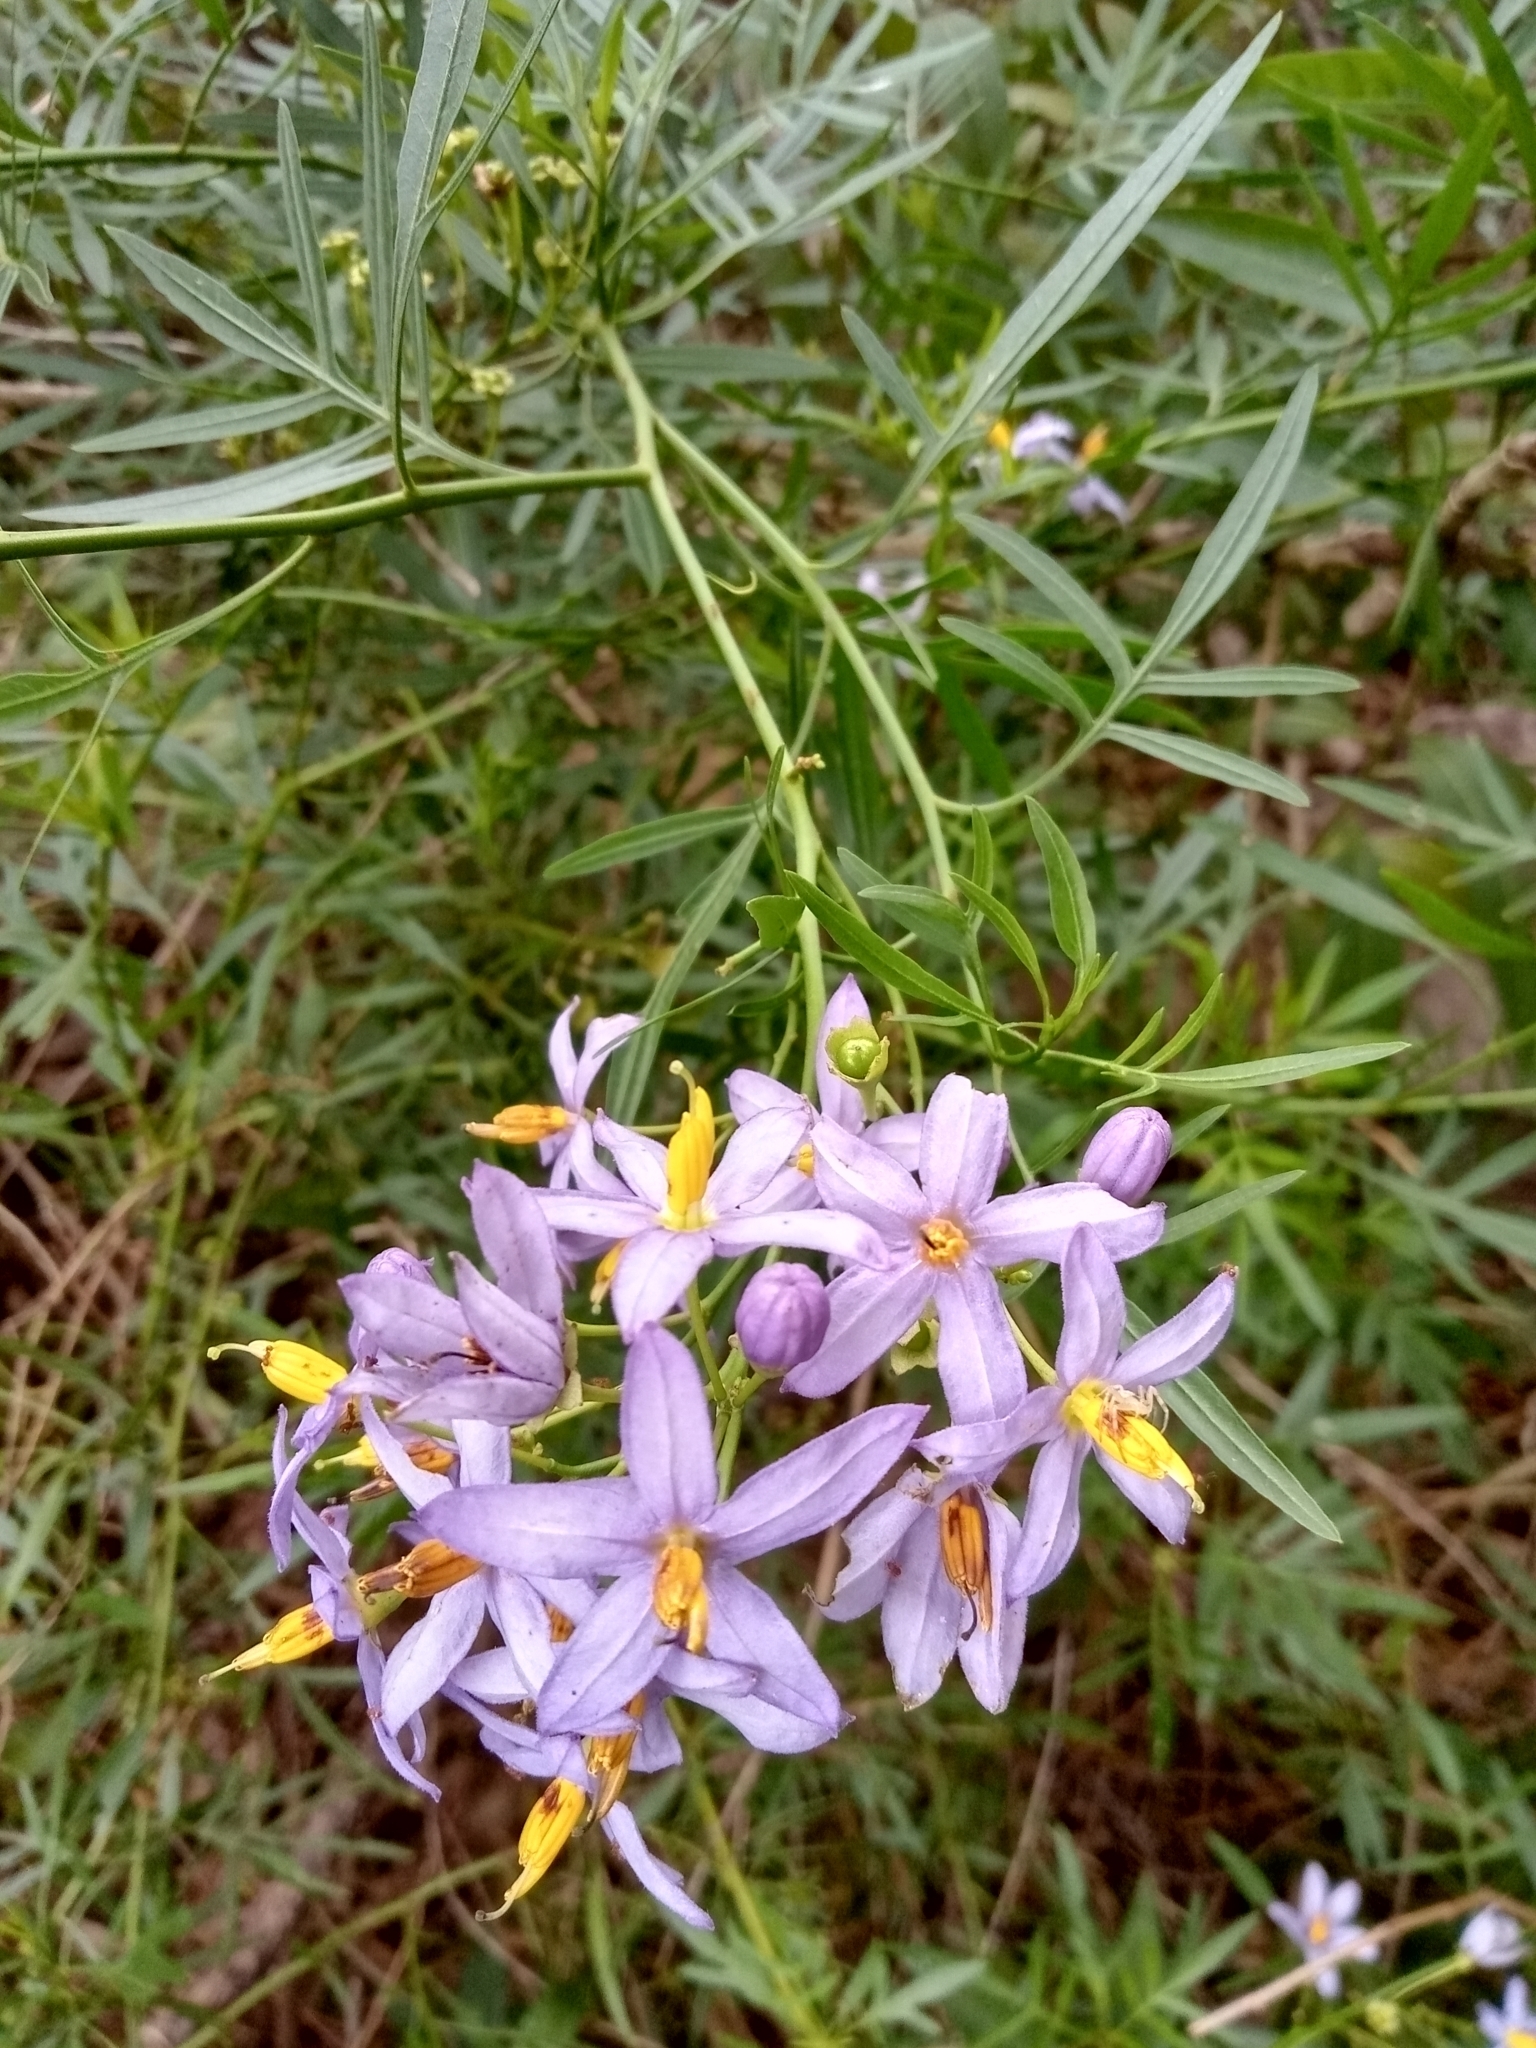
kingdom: Plantae
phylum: Tracheophyta
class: Magnoliopsida
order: Solanales
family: Solanaceae
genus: Solanum
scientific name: Solanum angustifidum
